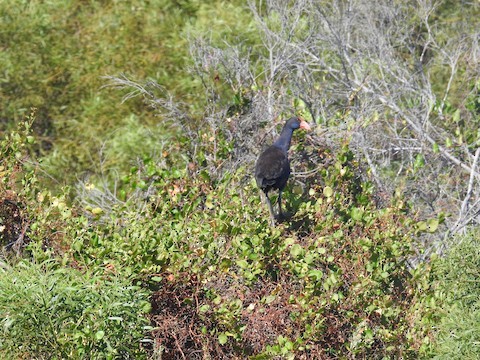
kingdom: Animalia
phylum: Chordata
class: Aves
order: Gruiformes
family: Rallidae
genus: Porphyrio
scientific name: Porphyrio melanotus
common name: Australasian swamphen
